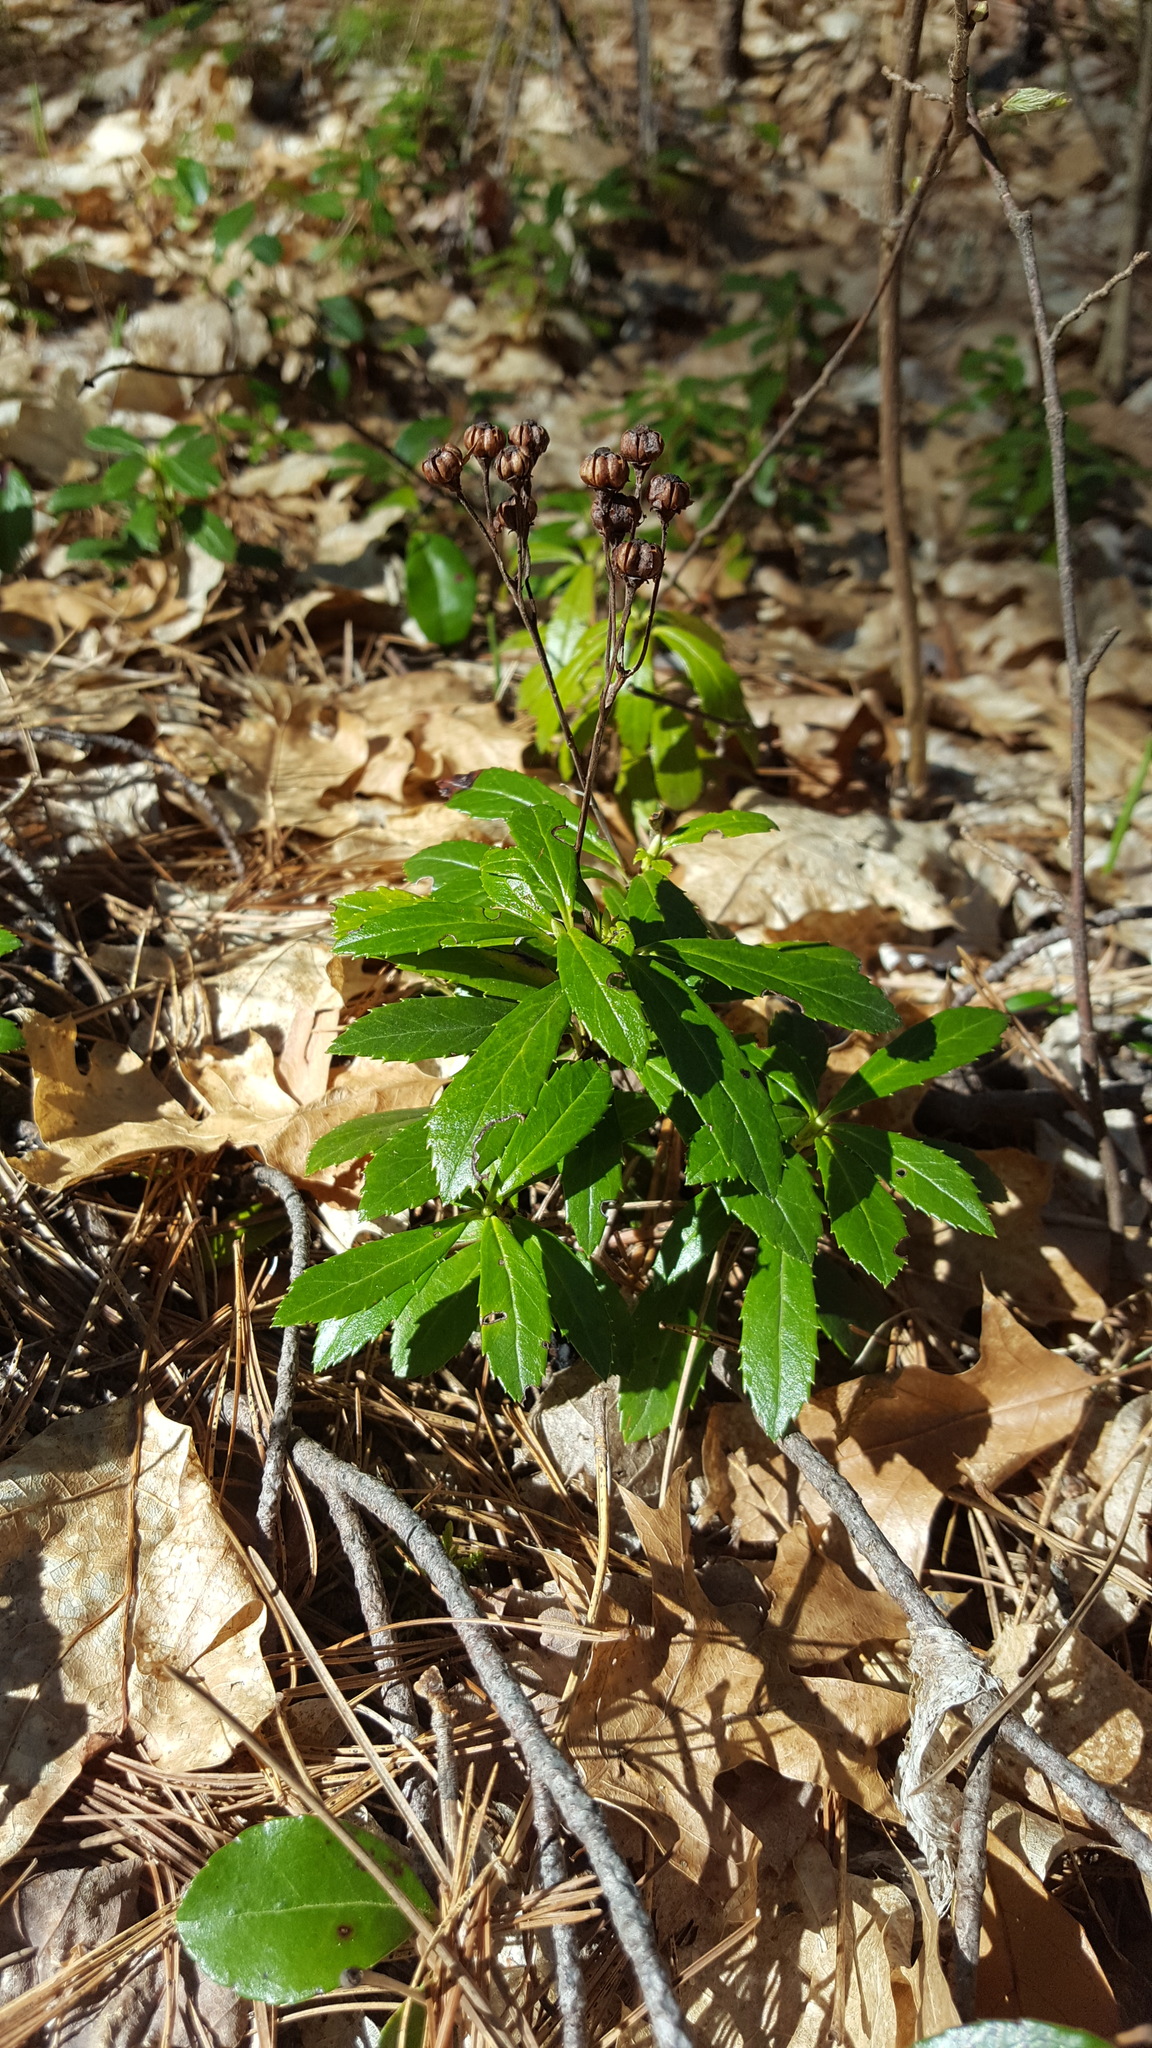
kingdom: Plantae
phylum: Tracheophyta
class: Magnoliopsida
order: Ericales
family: Ericaceae
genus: Chimaphila
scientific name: Chimaphila umbellata
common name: Pipsissewa
